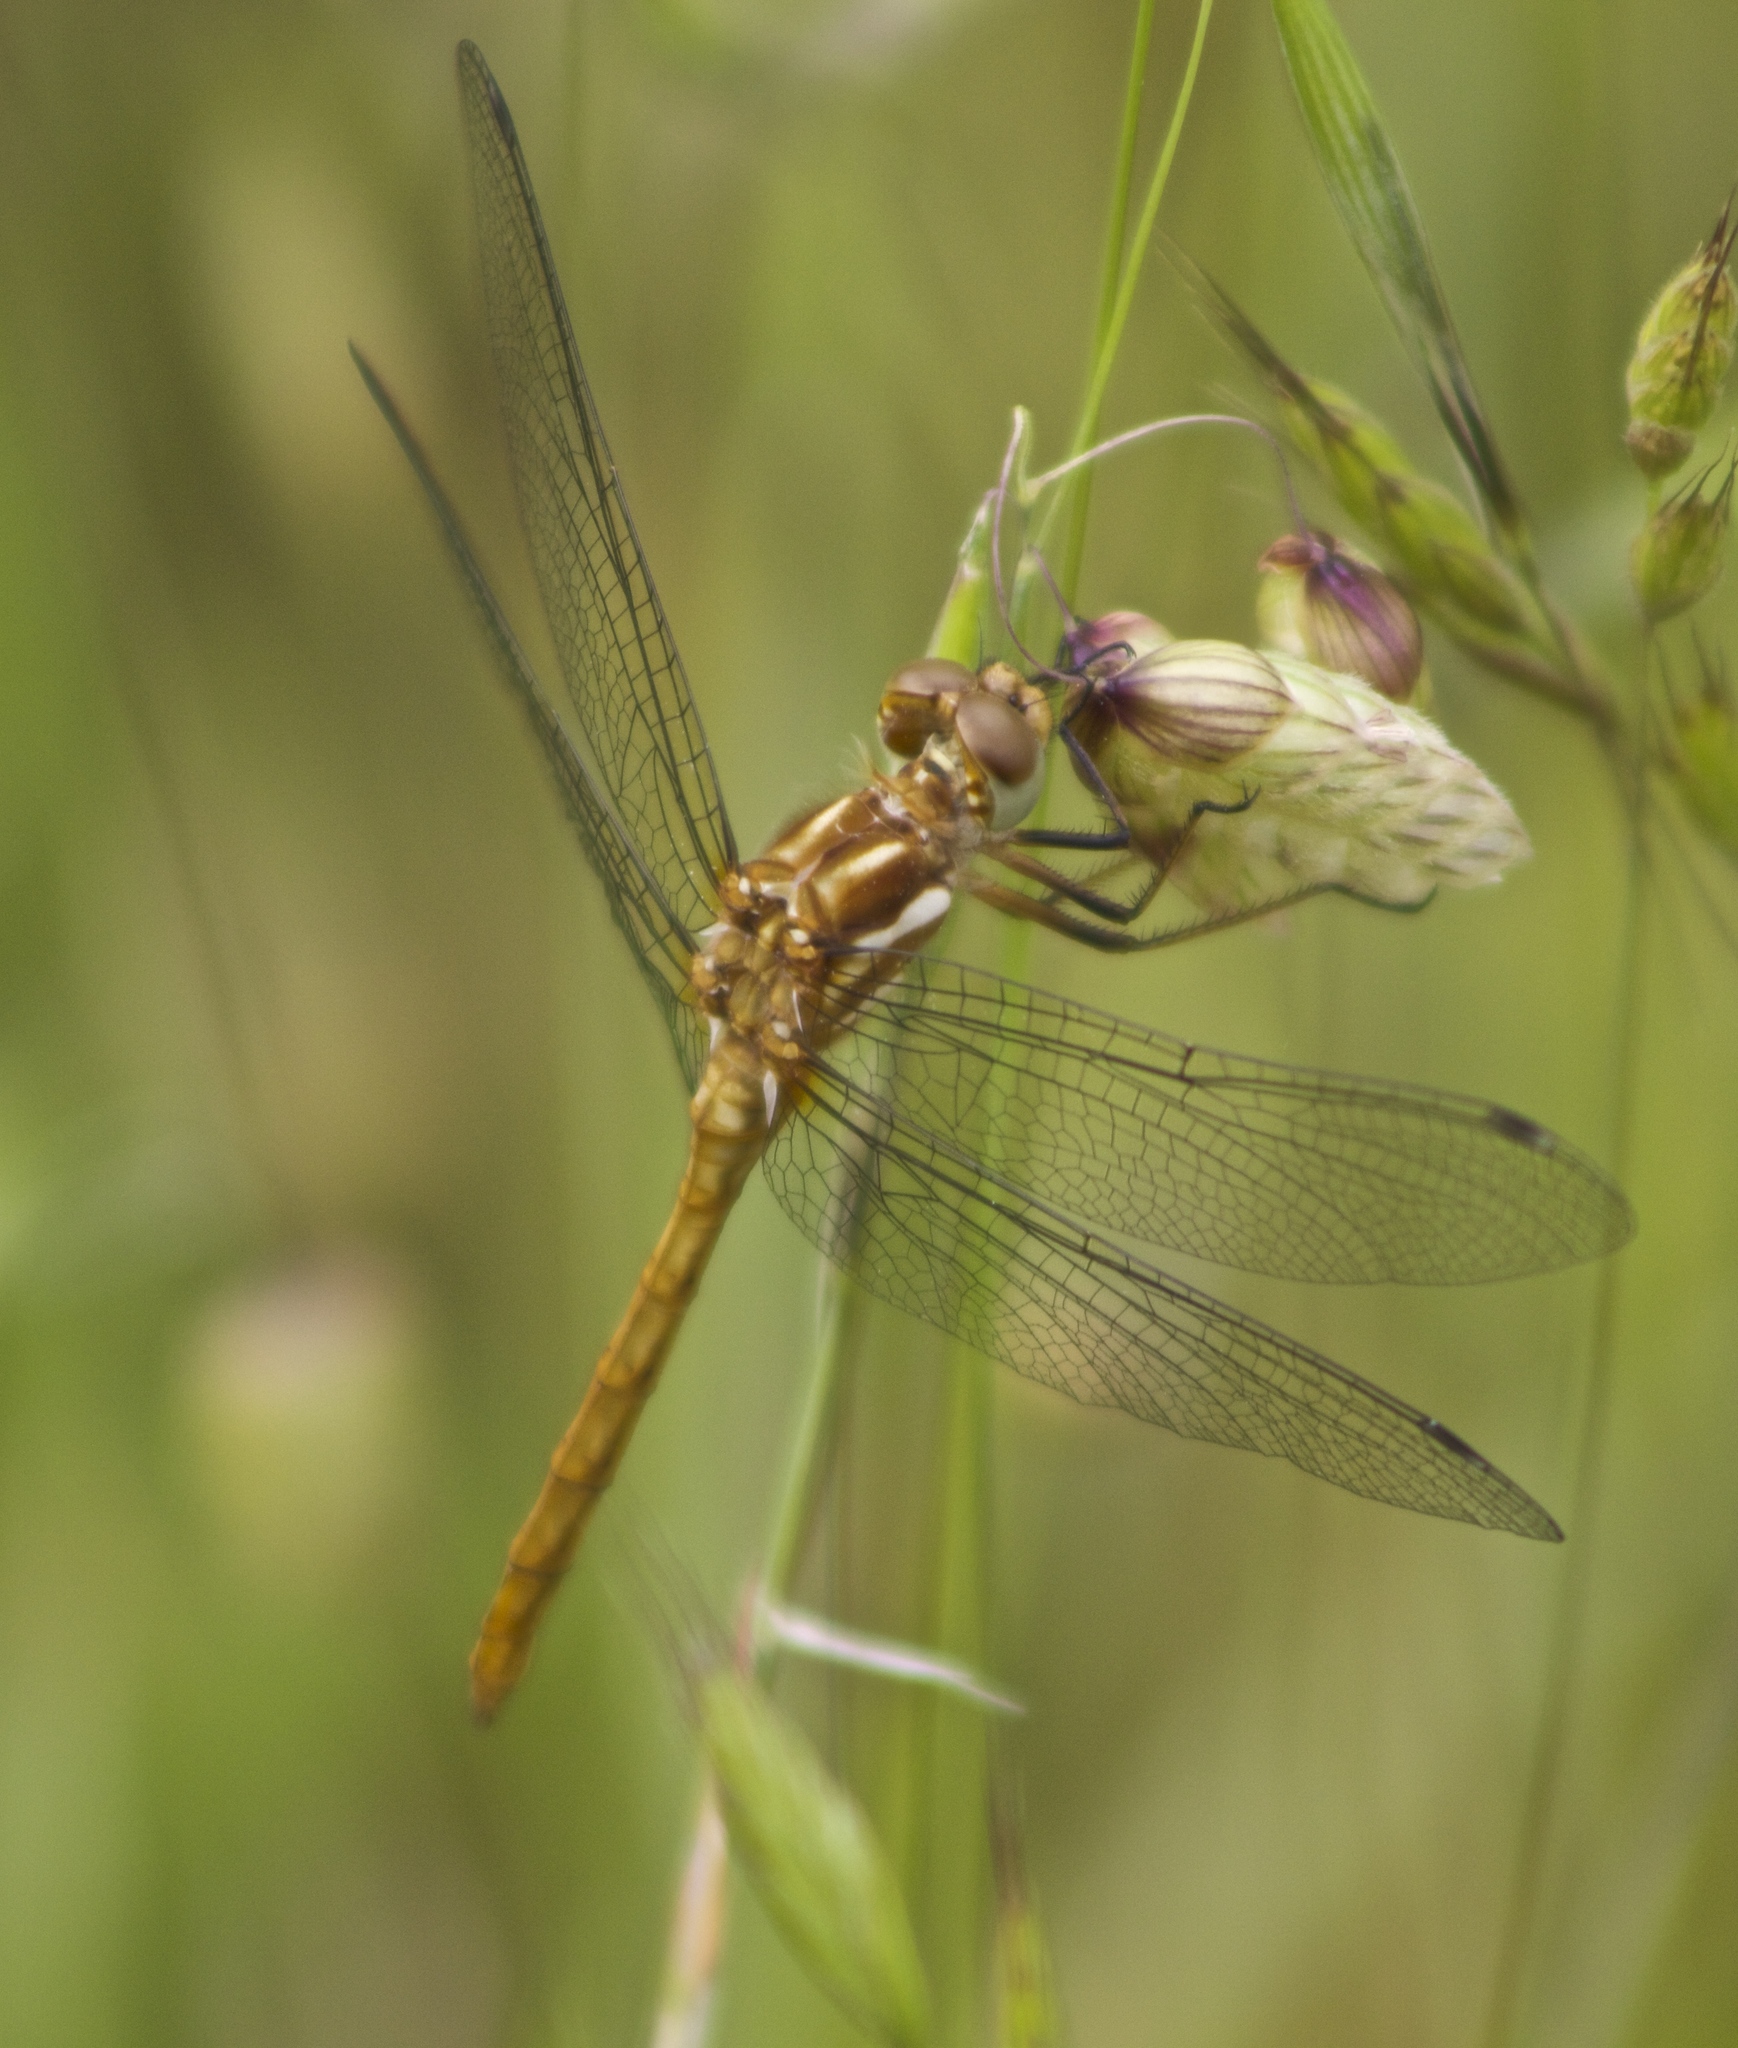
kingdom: Animalia
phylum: Arthropoda
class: Insecta
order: Odonata
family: Libellulidae
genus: Sympetrum
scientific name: Sympetrum pallipes
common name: Striped meadowhawk
